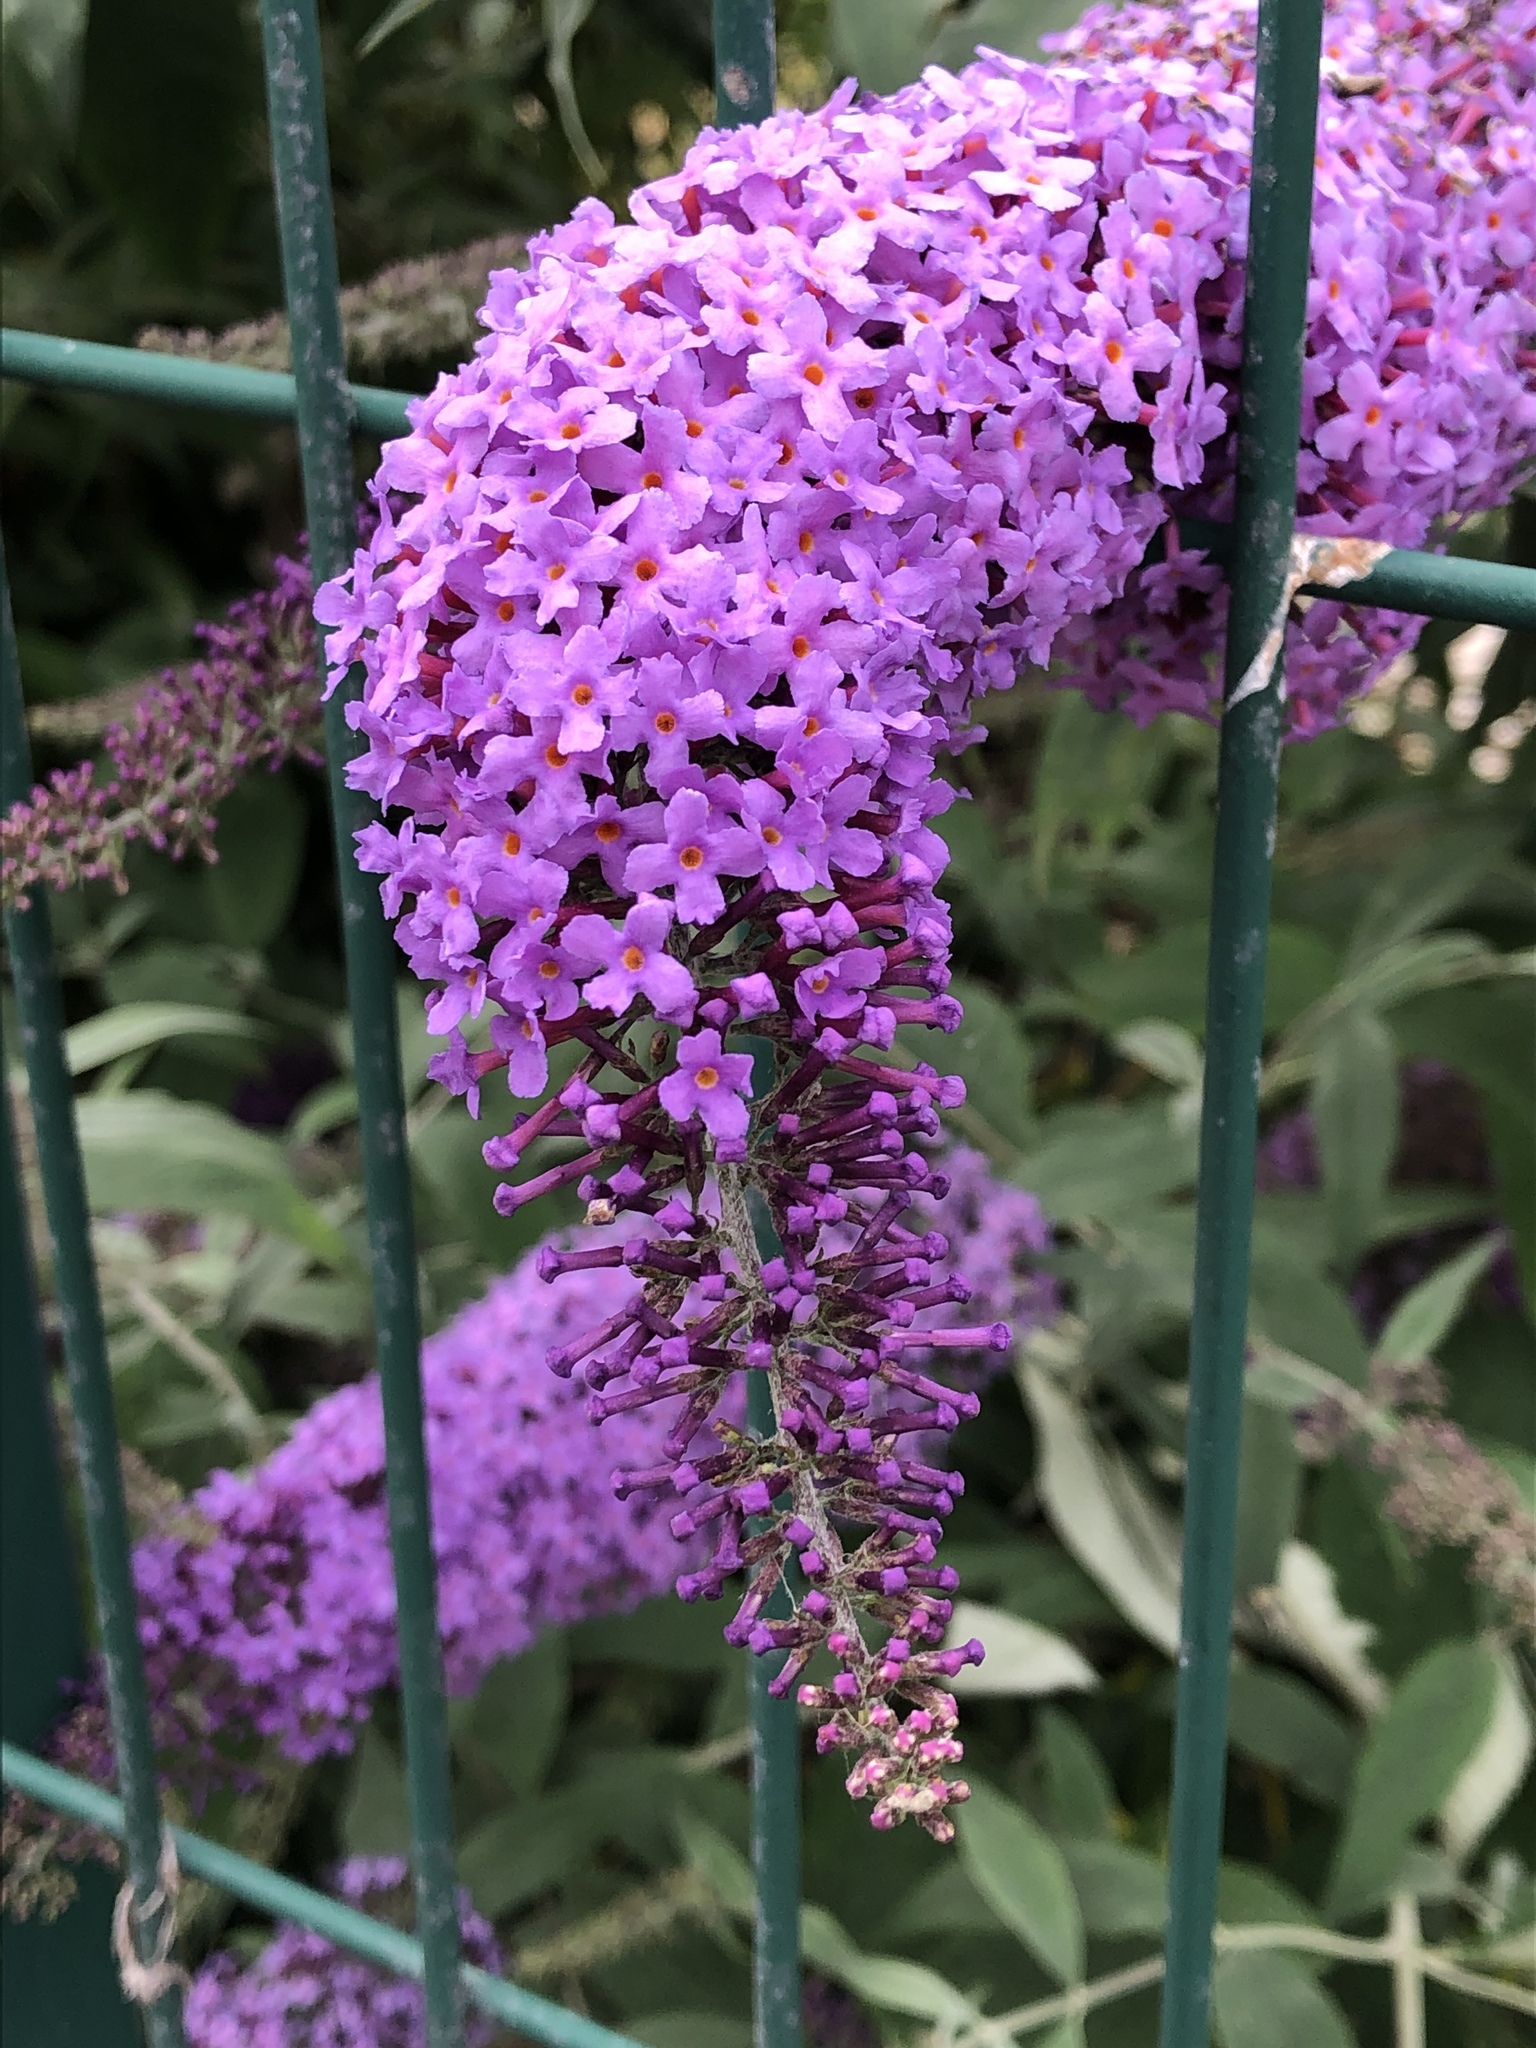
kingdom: Plantae
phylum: Tracheophyta
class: Magnoliopsida
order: Lamiales
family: Scrophulariaceae
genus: Buddleja
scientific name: Buddleja davidii
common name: Butterfly-bush
